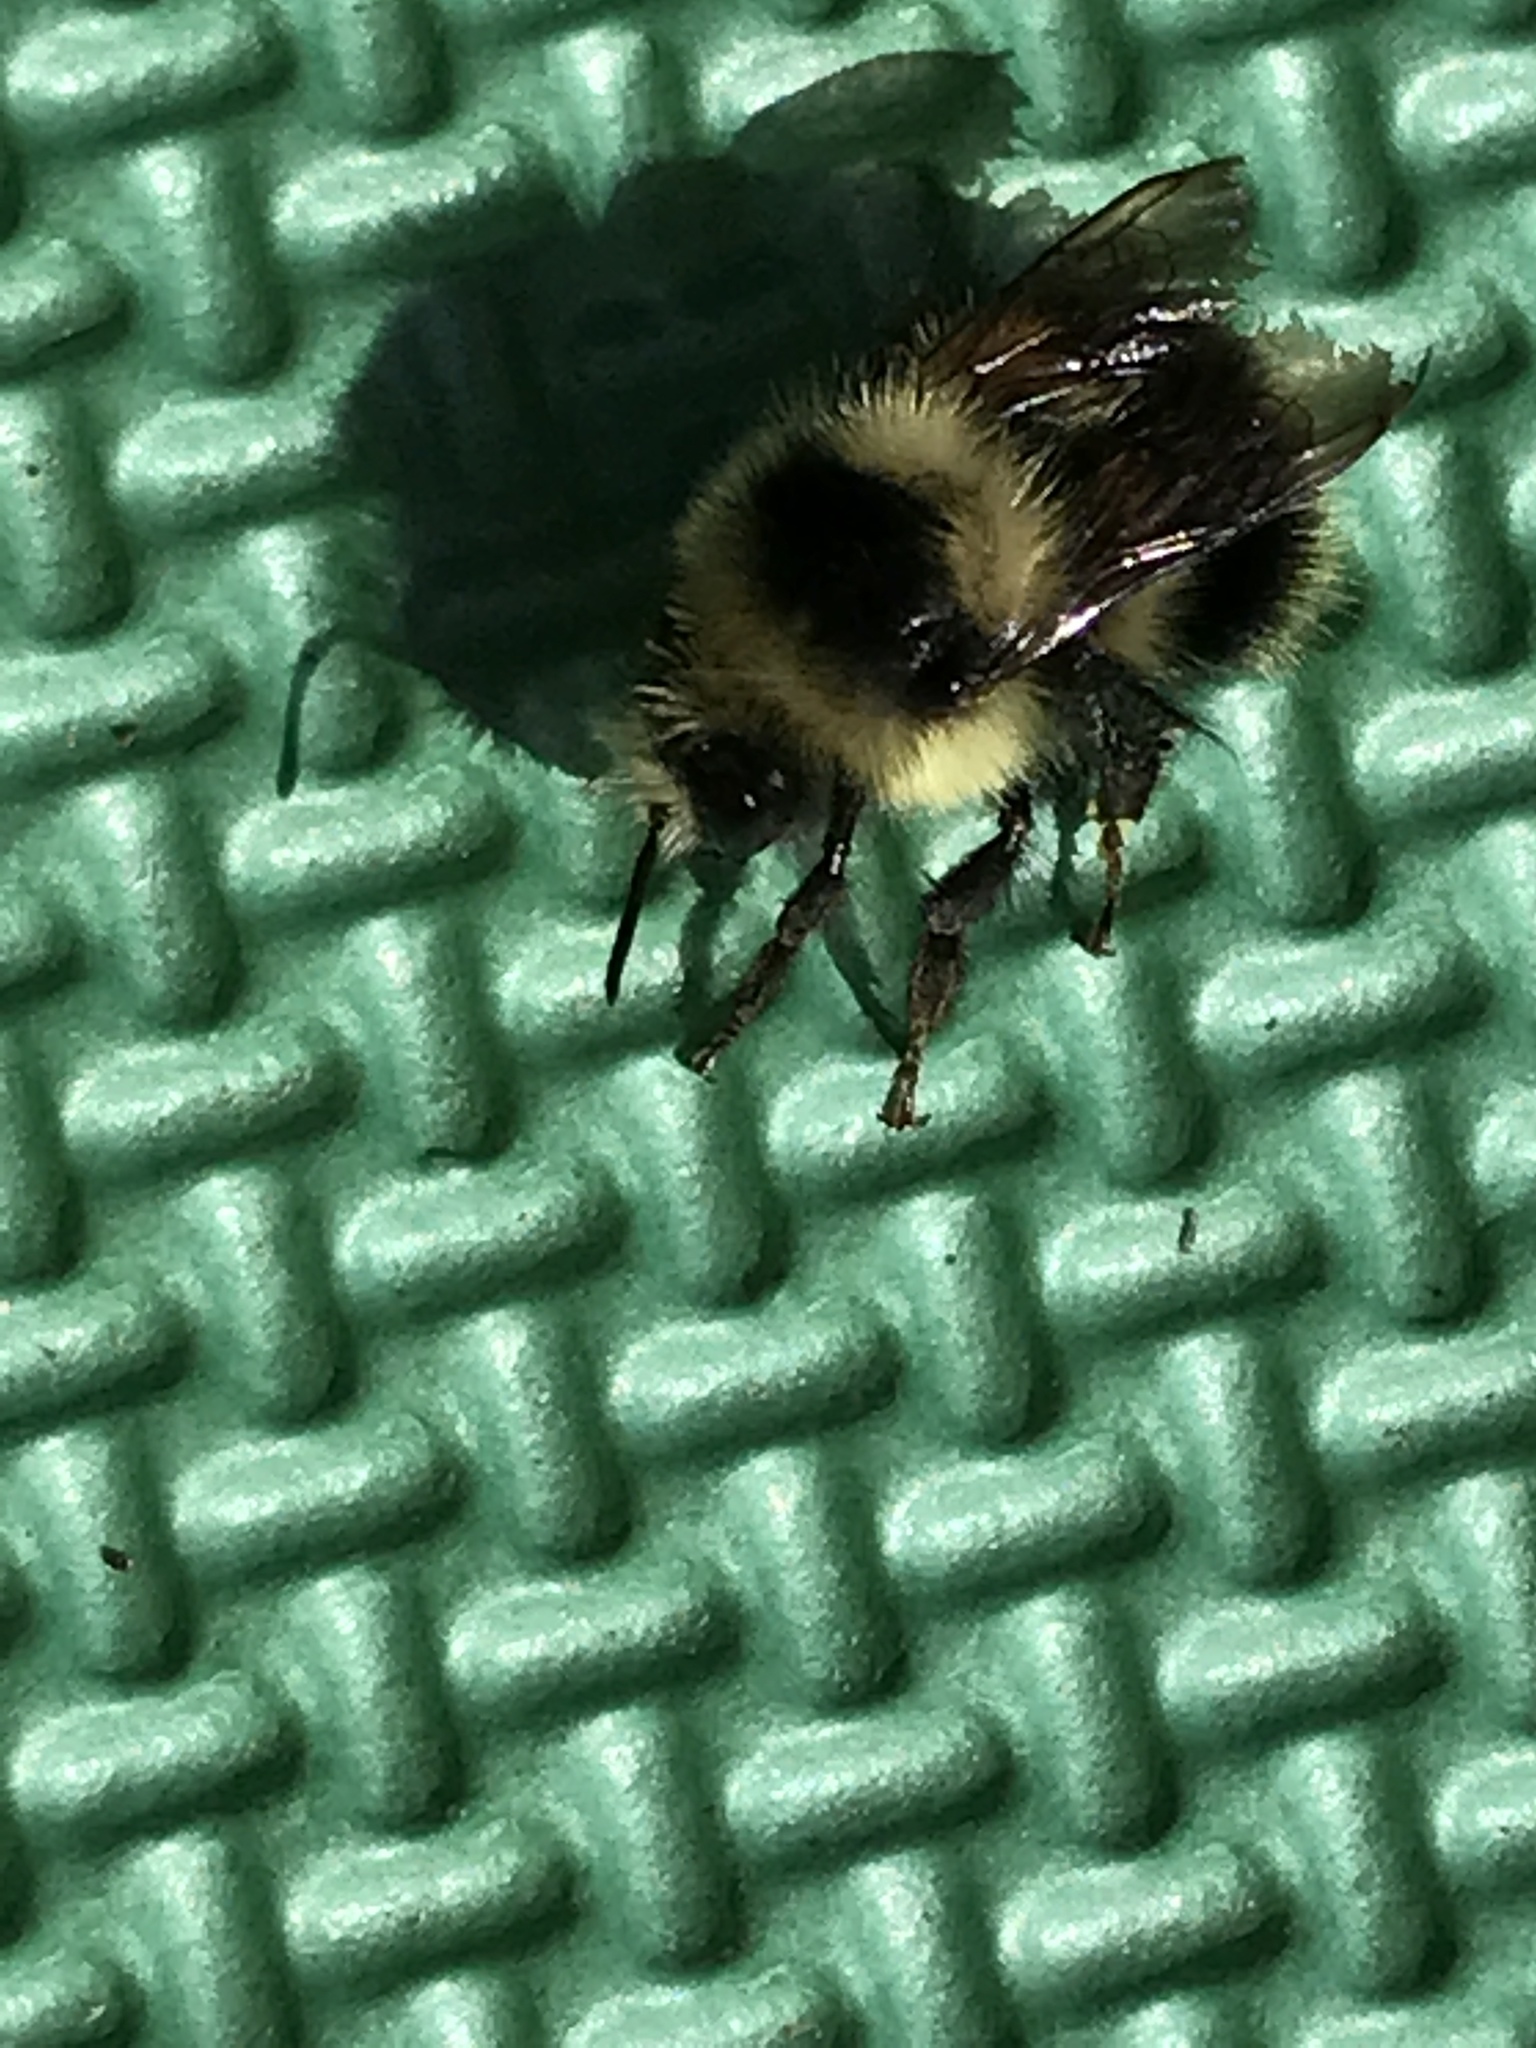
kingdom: Animalia
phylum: Arthropoda
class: Insecta
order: Hymenoptera
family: Apidae
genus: Bombus
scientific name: Bombus melanopygus
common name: Black tail bumble bee
